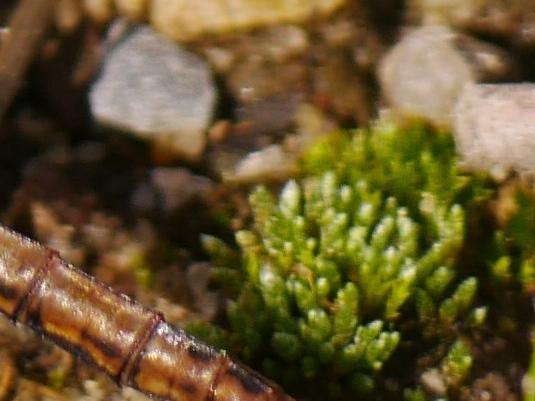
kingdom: Plantae
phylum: Bryophyta
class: Bryopsida
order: Bryales
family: Bryaceae
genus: Bryum
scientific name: Bryum argenteum
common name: Silver-moss
